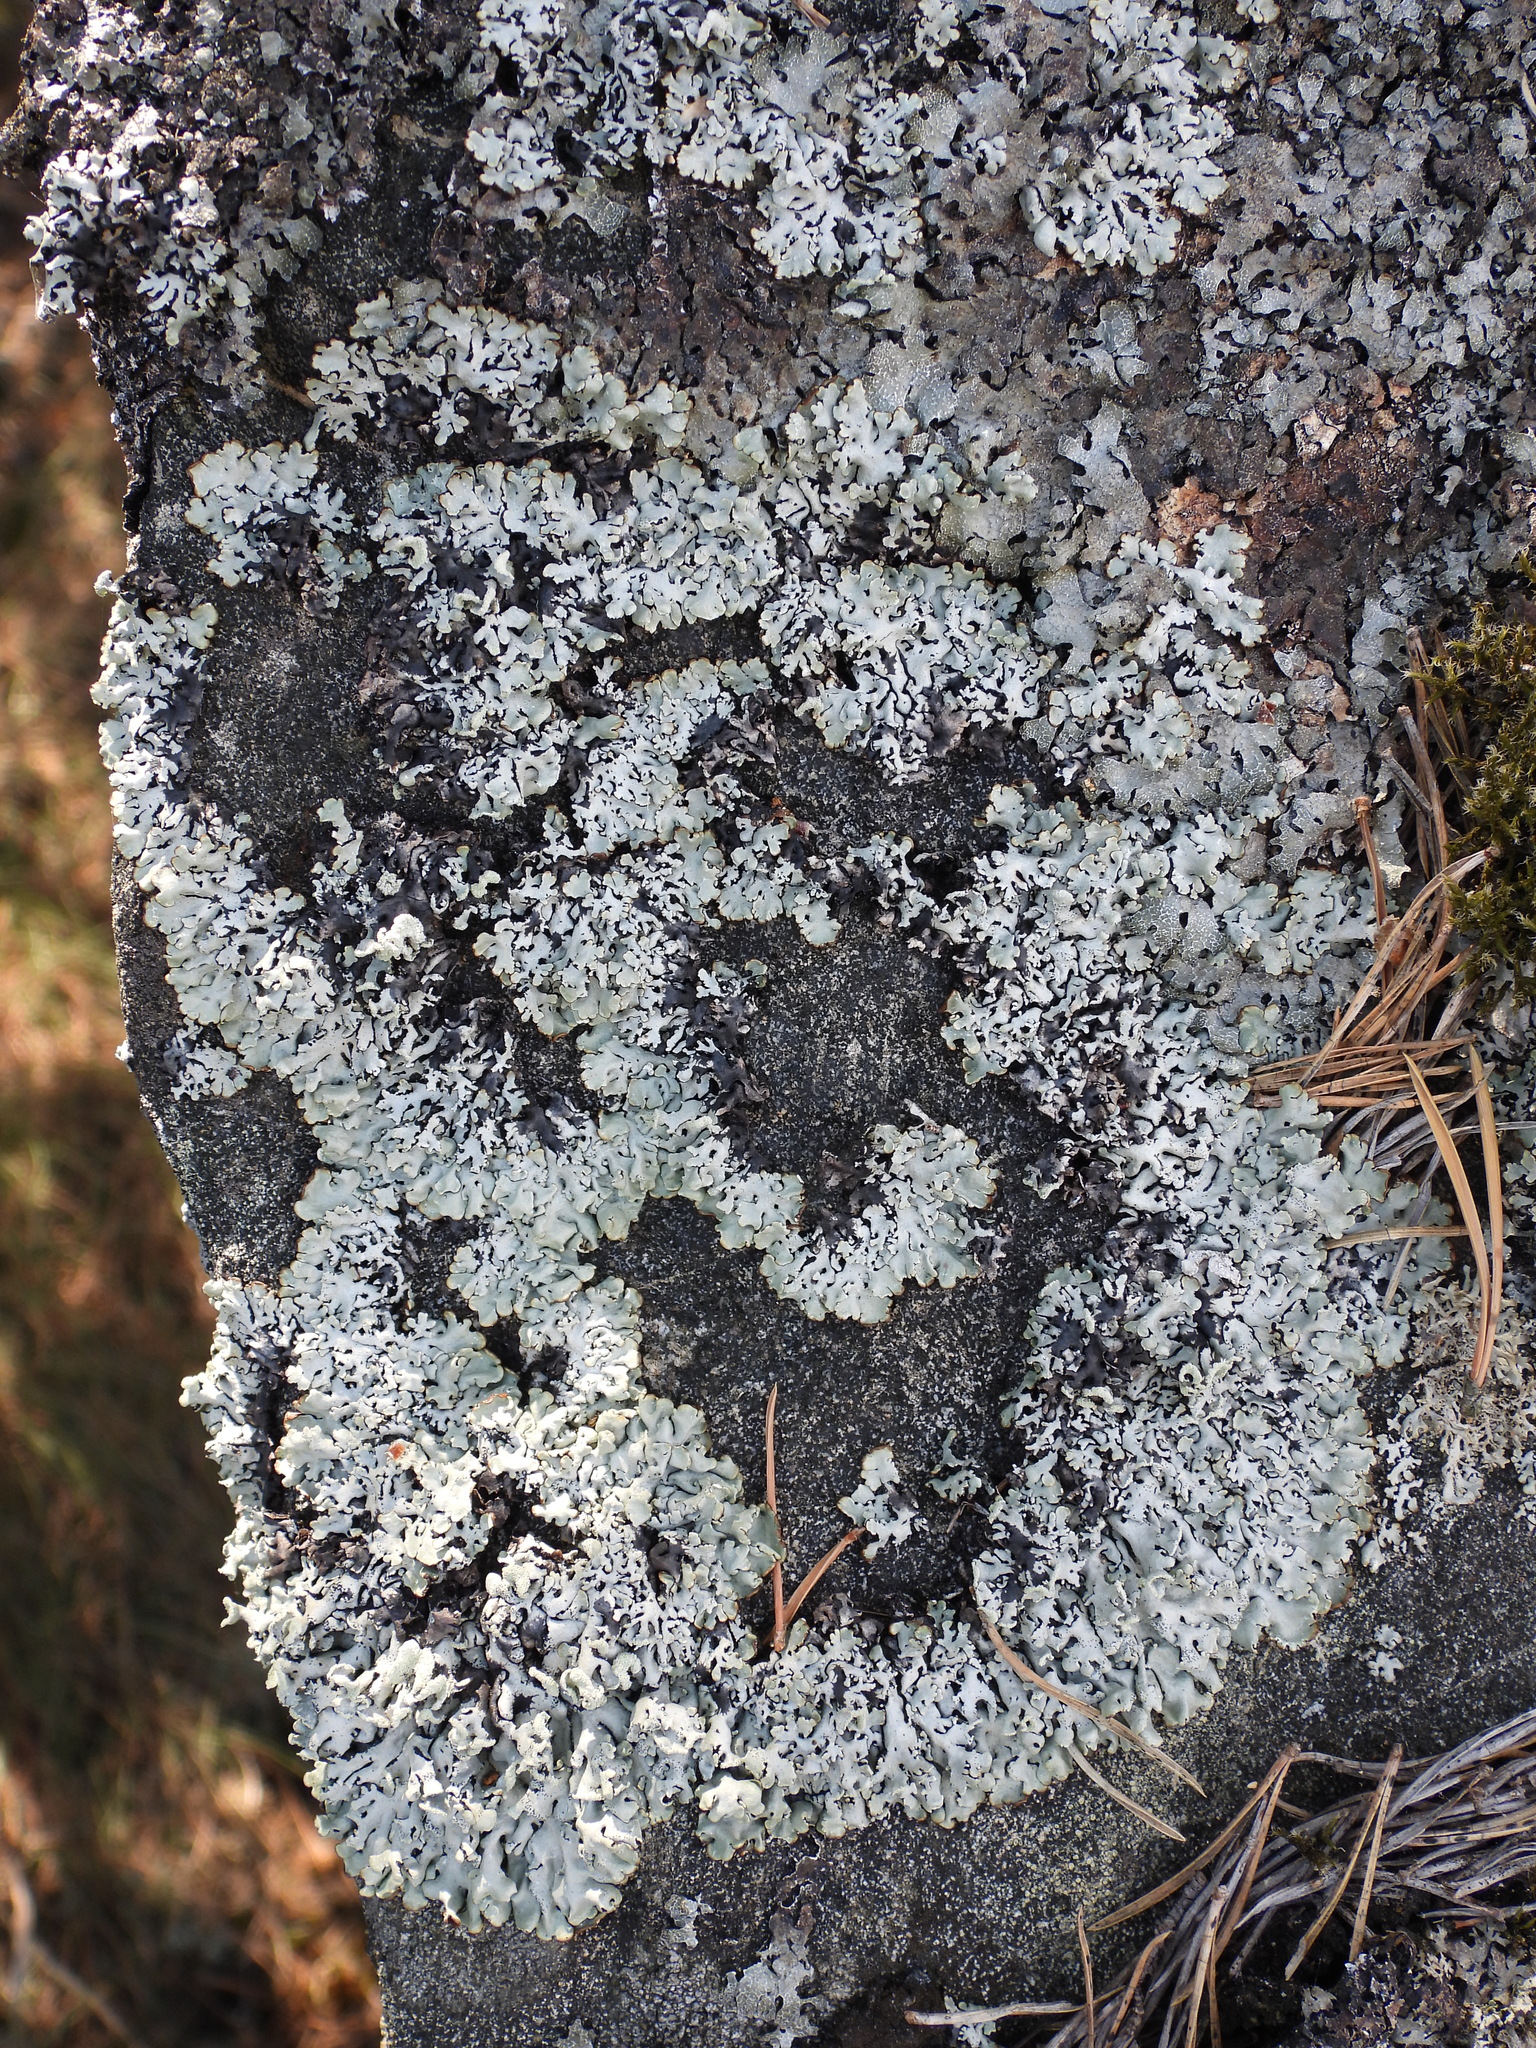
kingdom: Fungi
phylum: Ascomycota
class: Lecanoromycetes
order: Lecanorales
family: Parmeliaceae
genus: Hypogymnia
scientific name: Hypogymnia physodes
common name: Dark crottle
